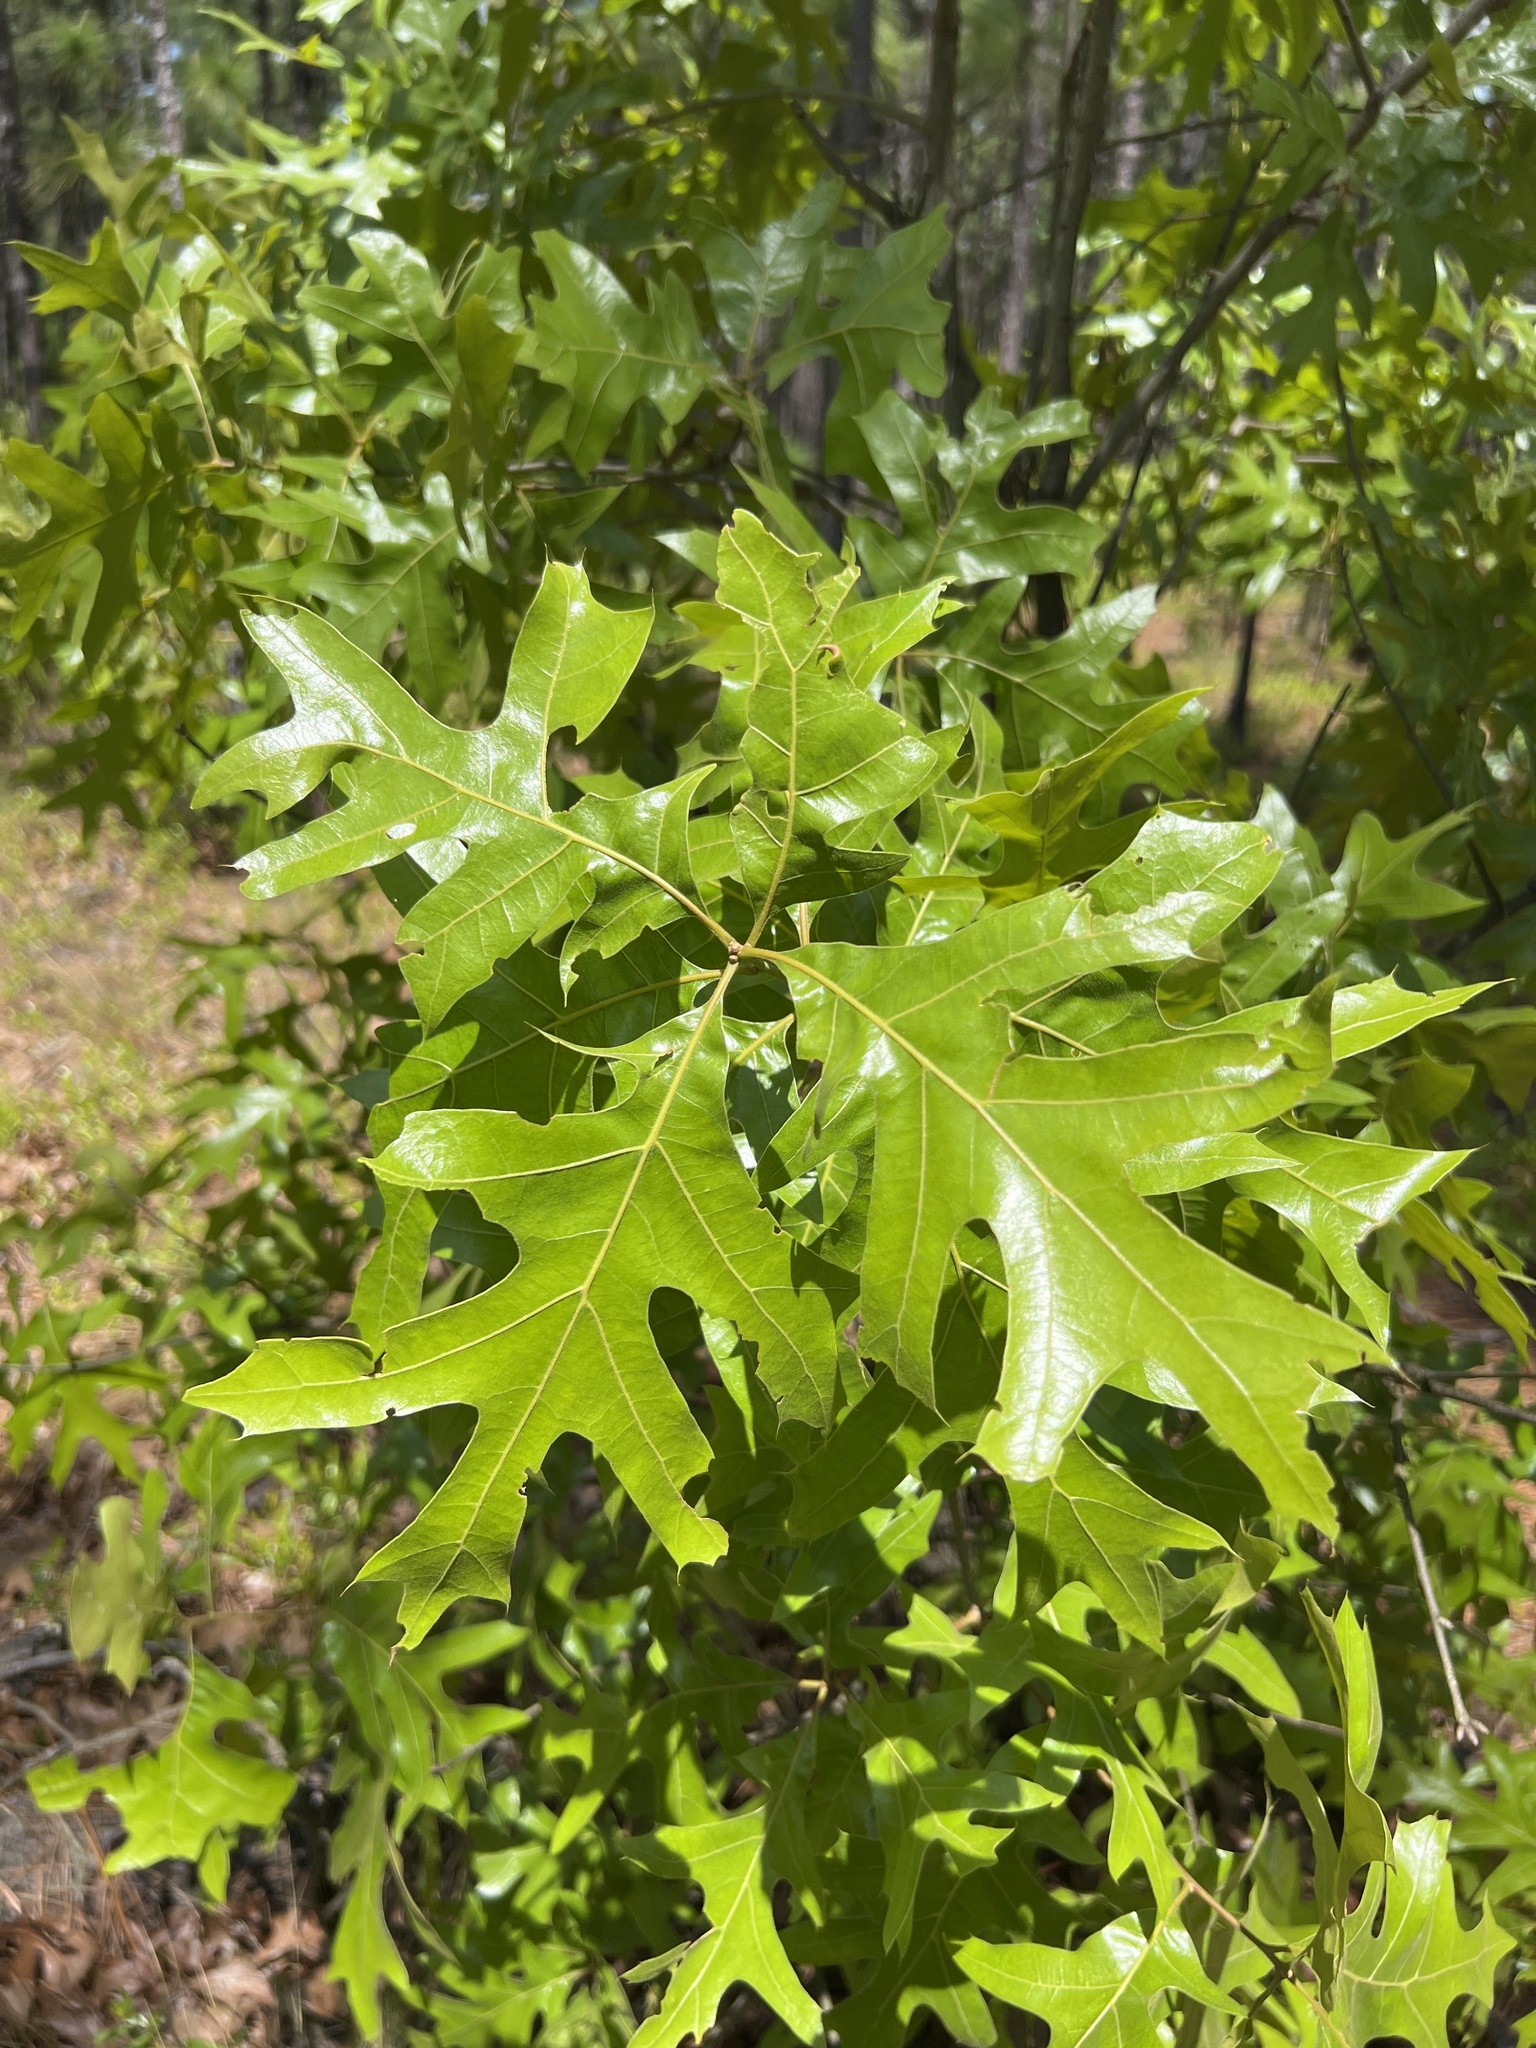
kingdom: Plantae
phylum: Tracheophyta
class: Magnoliopsida
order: Fagales
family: Fagaceae
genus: Quercus
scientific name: Quercus laevis
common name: Turkey oak
